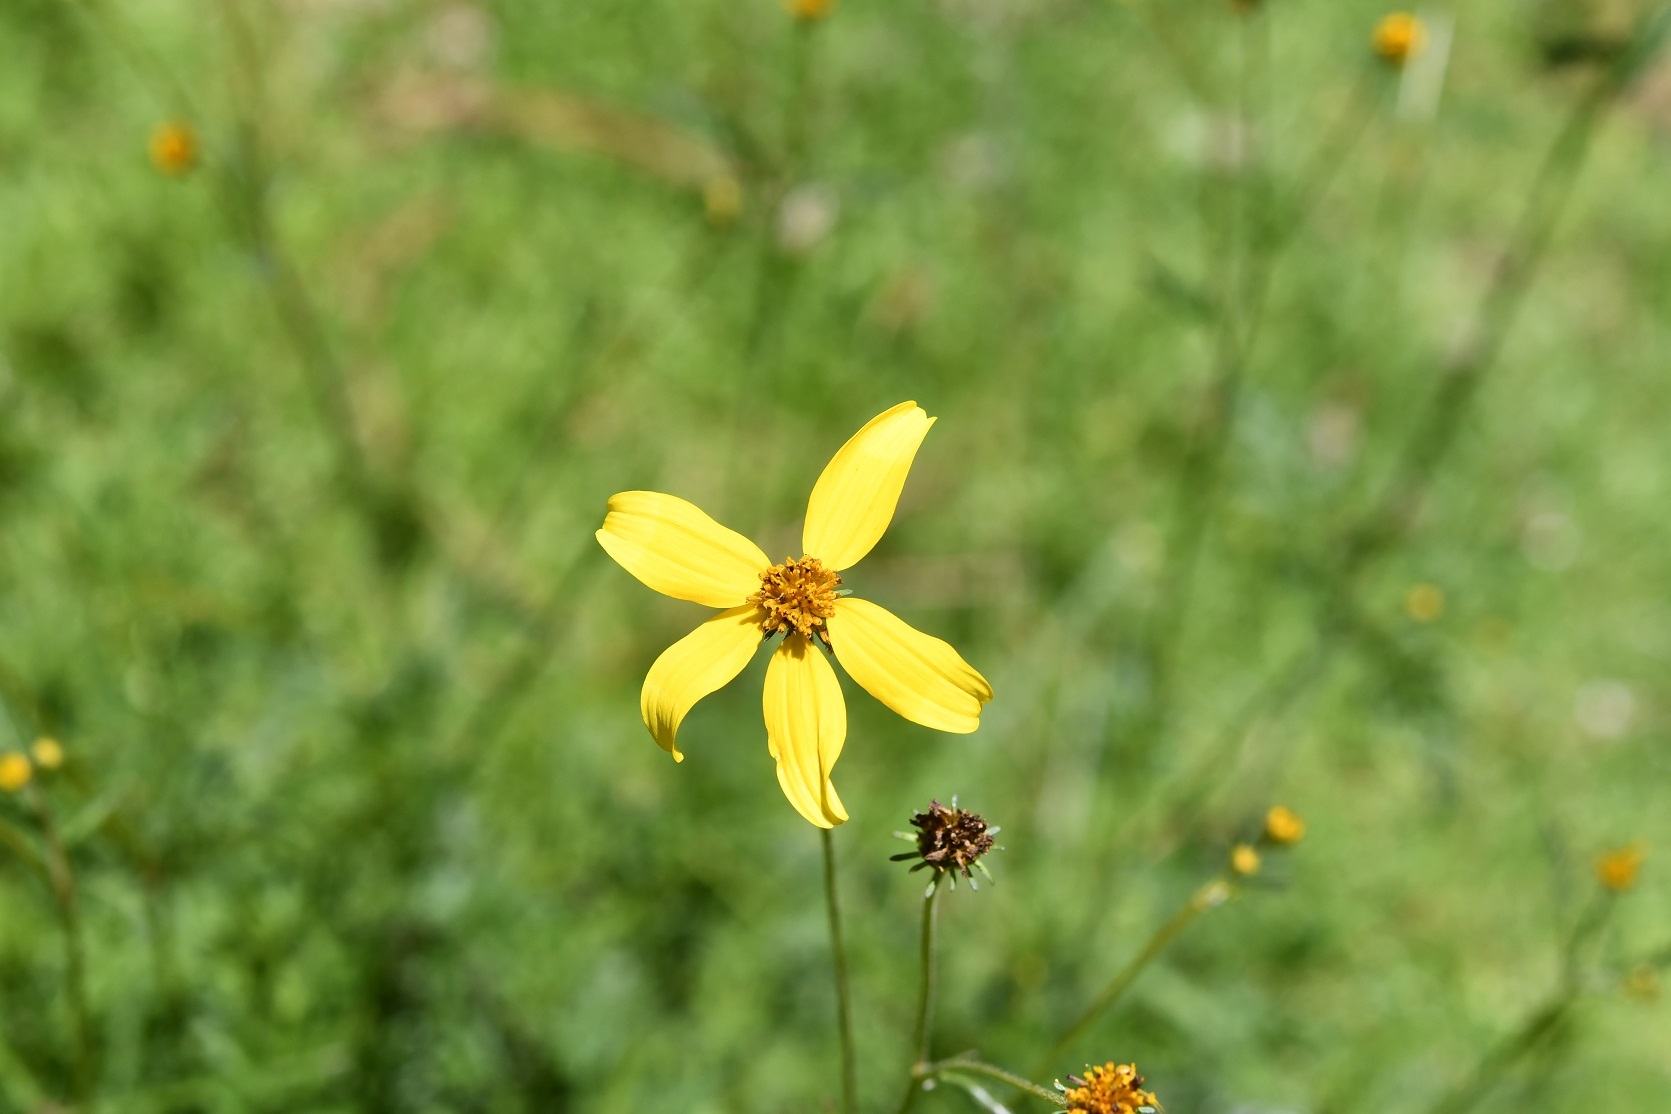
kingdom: Plantae
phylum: Tracheophyta
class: Magnoliopsida
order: Asterales
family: Asteraceae
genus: Bidens
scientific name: Bidens triplinervia
